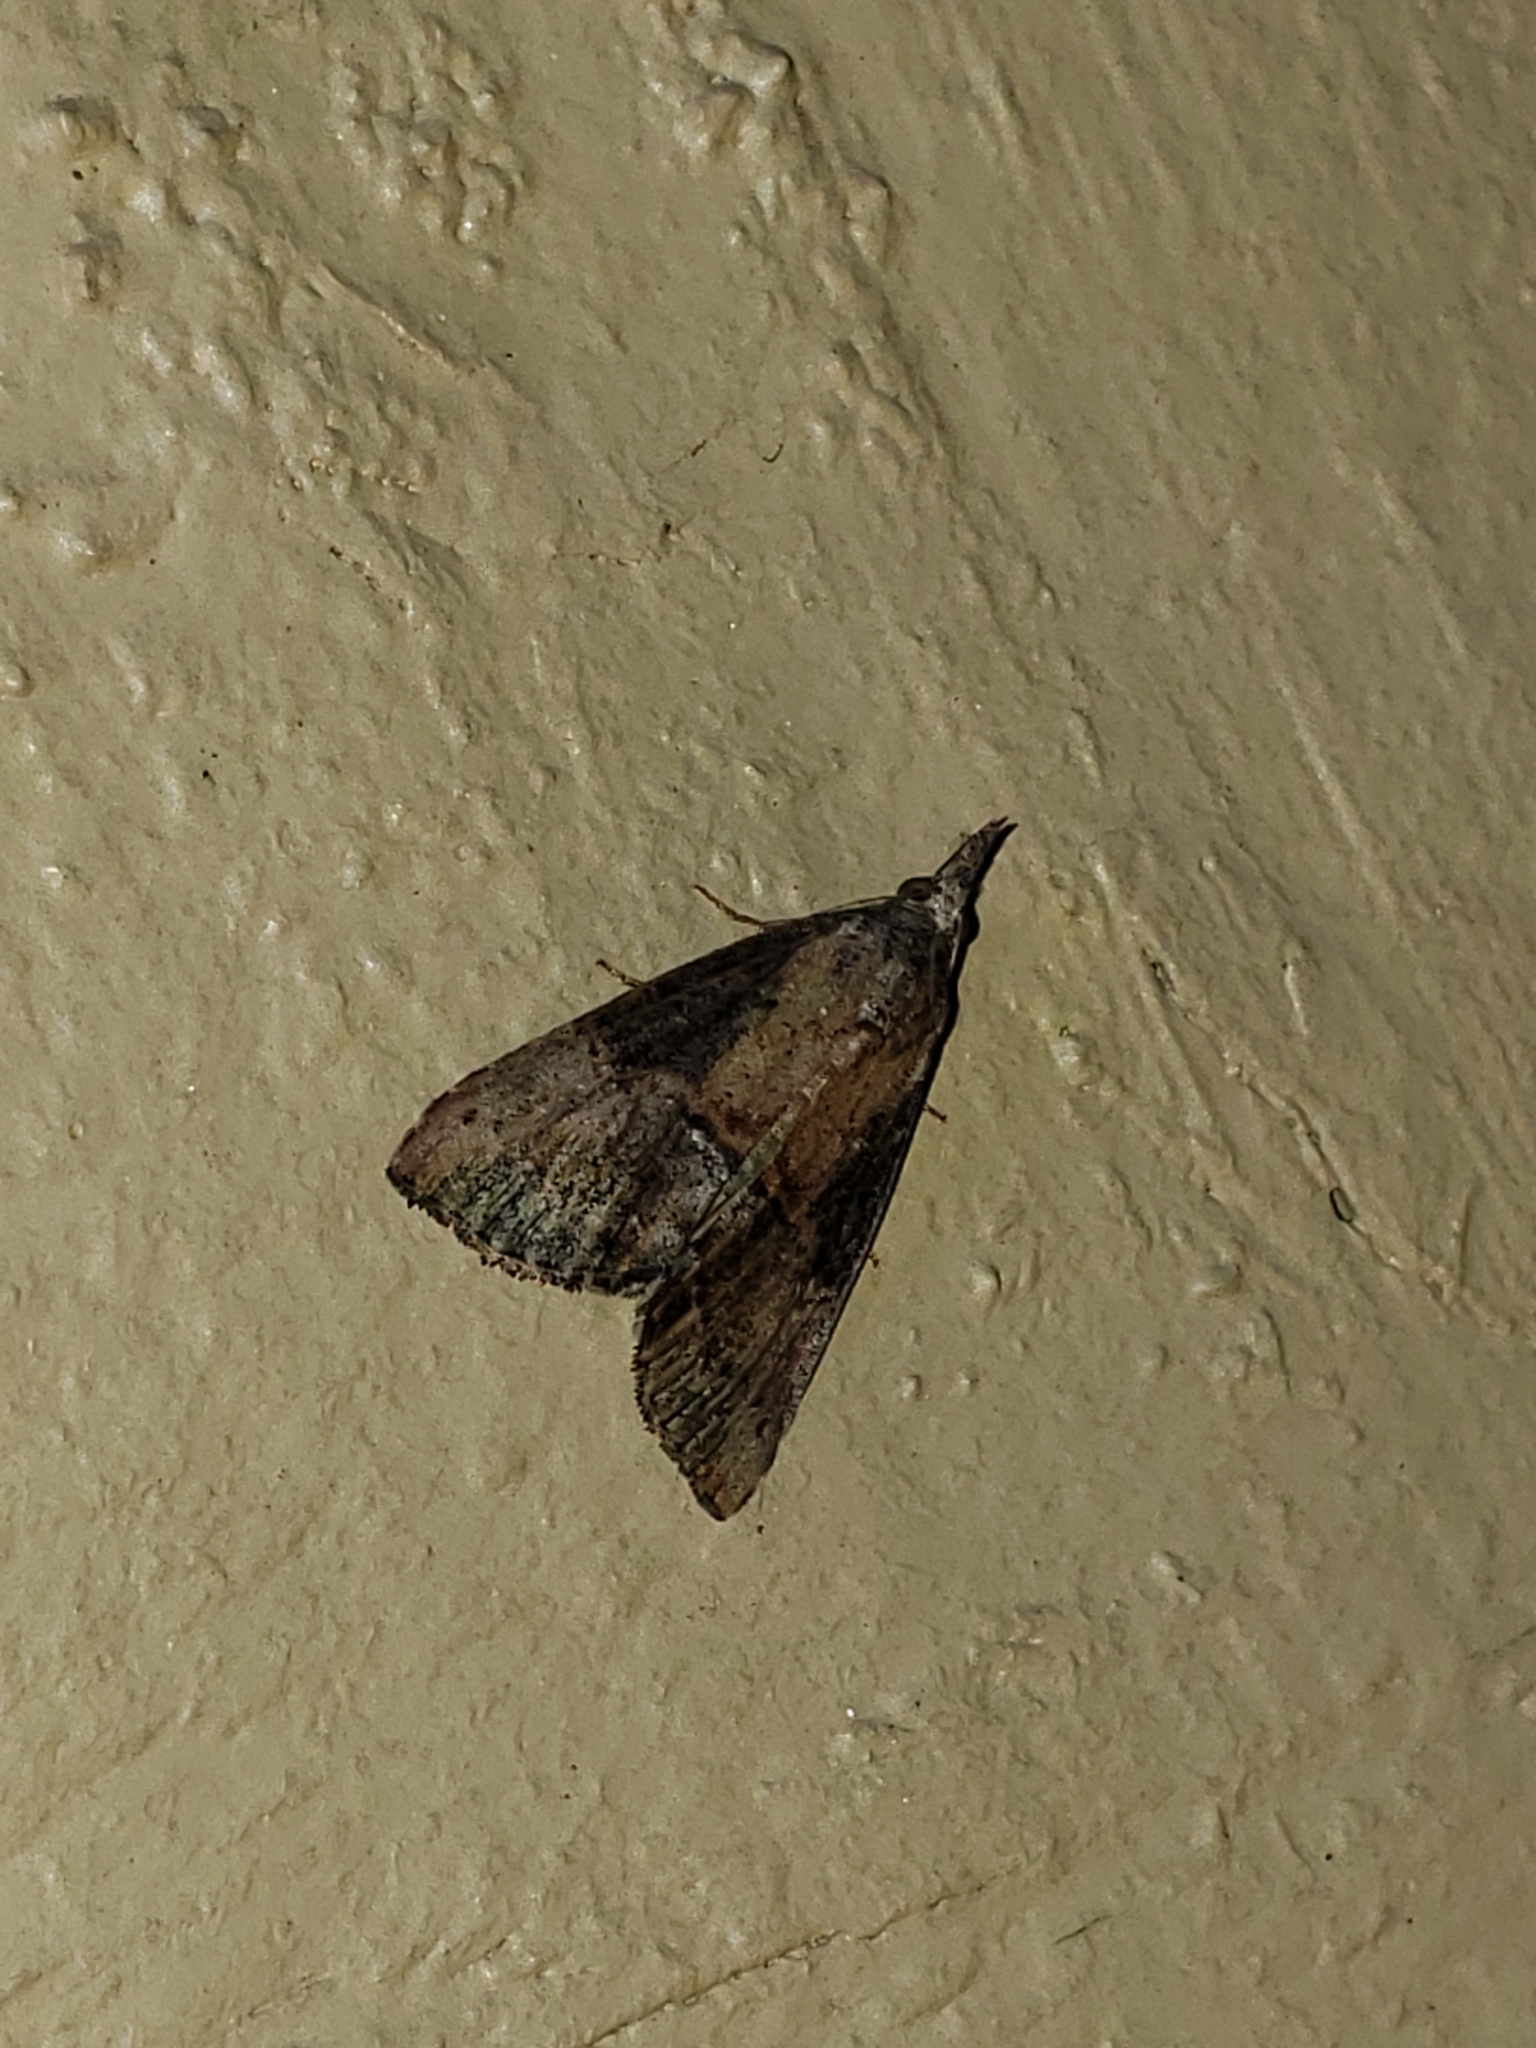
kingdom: Animalia
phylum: Arthropoda
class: Insecta
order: Lepidoptera
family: Erebidae
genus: Hypena
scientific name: Hypena scabra
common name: Green cloverworm
